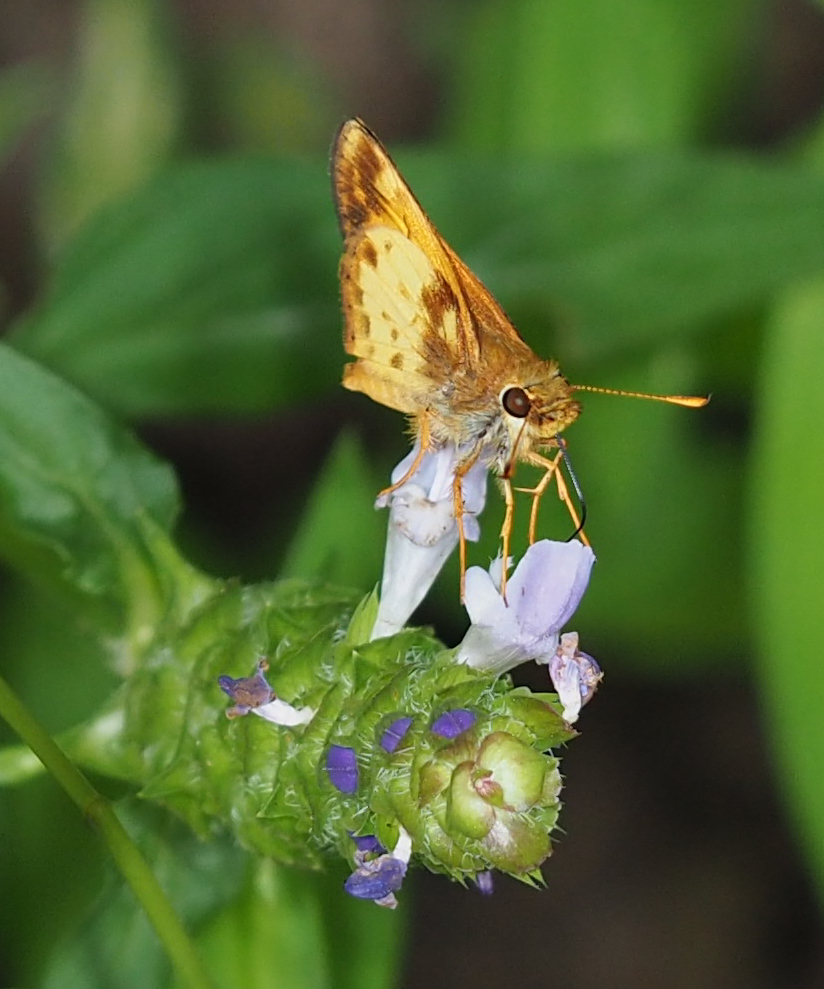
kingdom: Animalia
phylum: Arthropoda
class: Insecta
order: Lepidoptera
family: Hesperiidae
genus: Lon
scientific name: Lon zabulon
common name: Zabulon skipper
